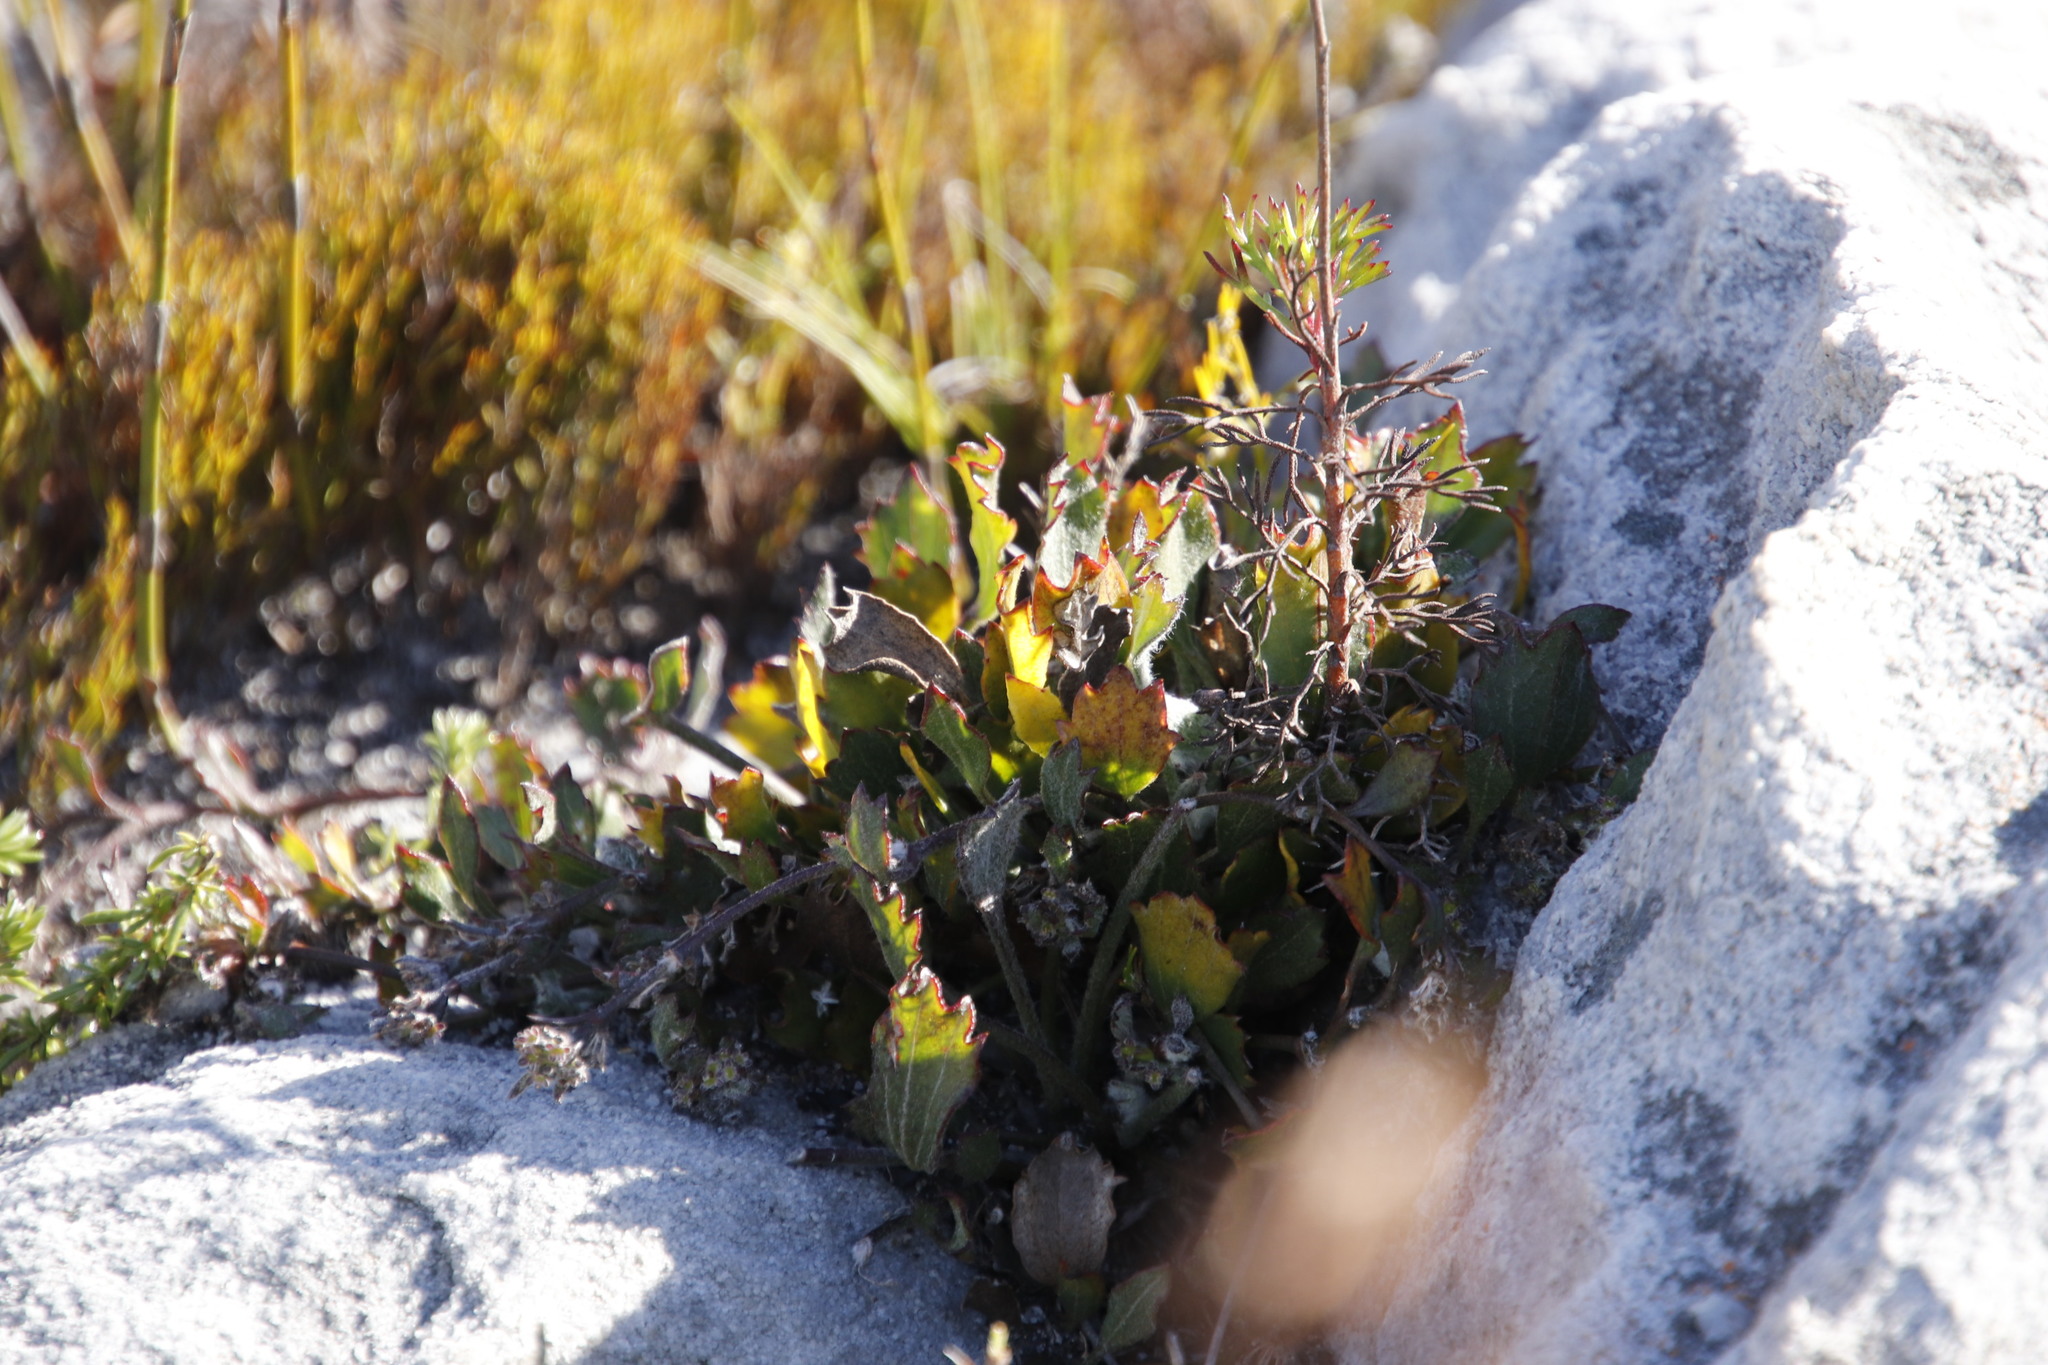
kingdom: Plantae
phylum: Tracheophyta
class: Magnoliopsida
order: Apiales
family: Apiaceae
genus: Centella
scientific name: Centella difformis
